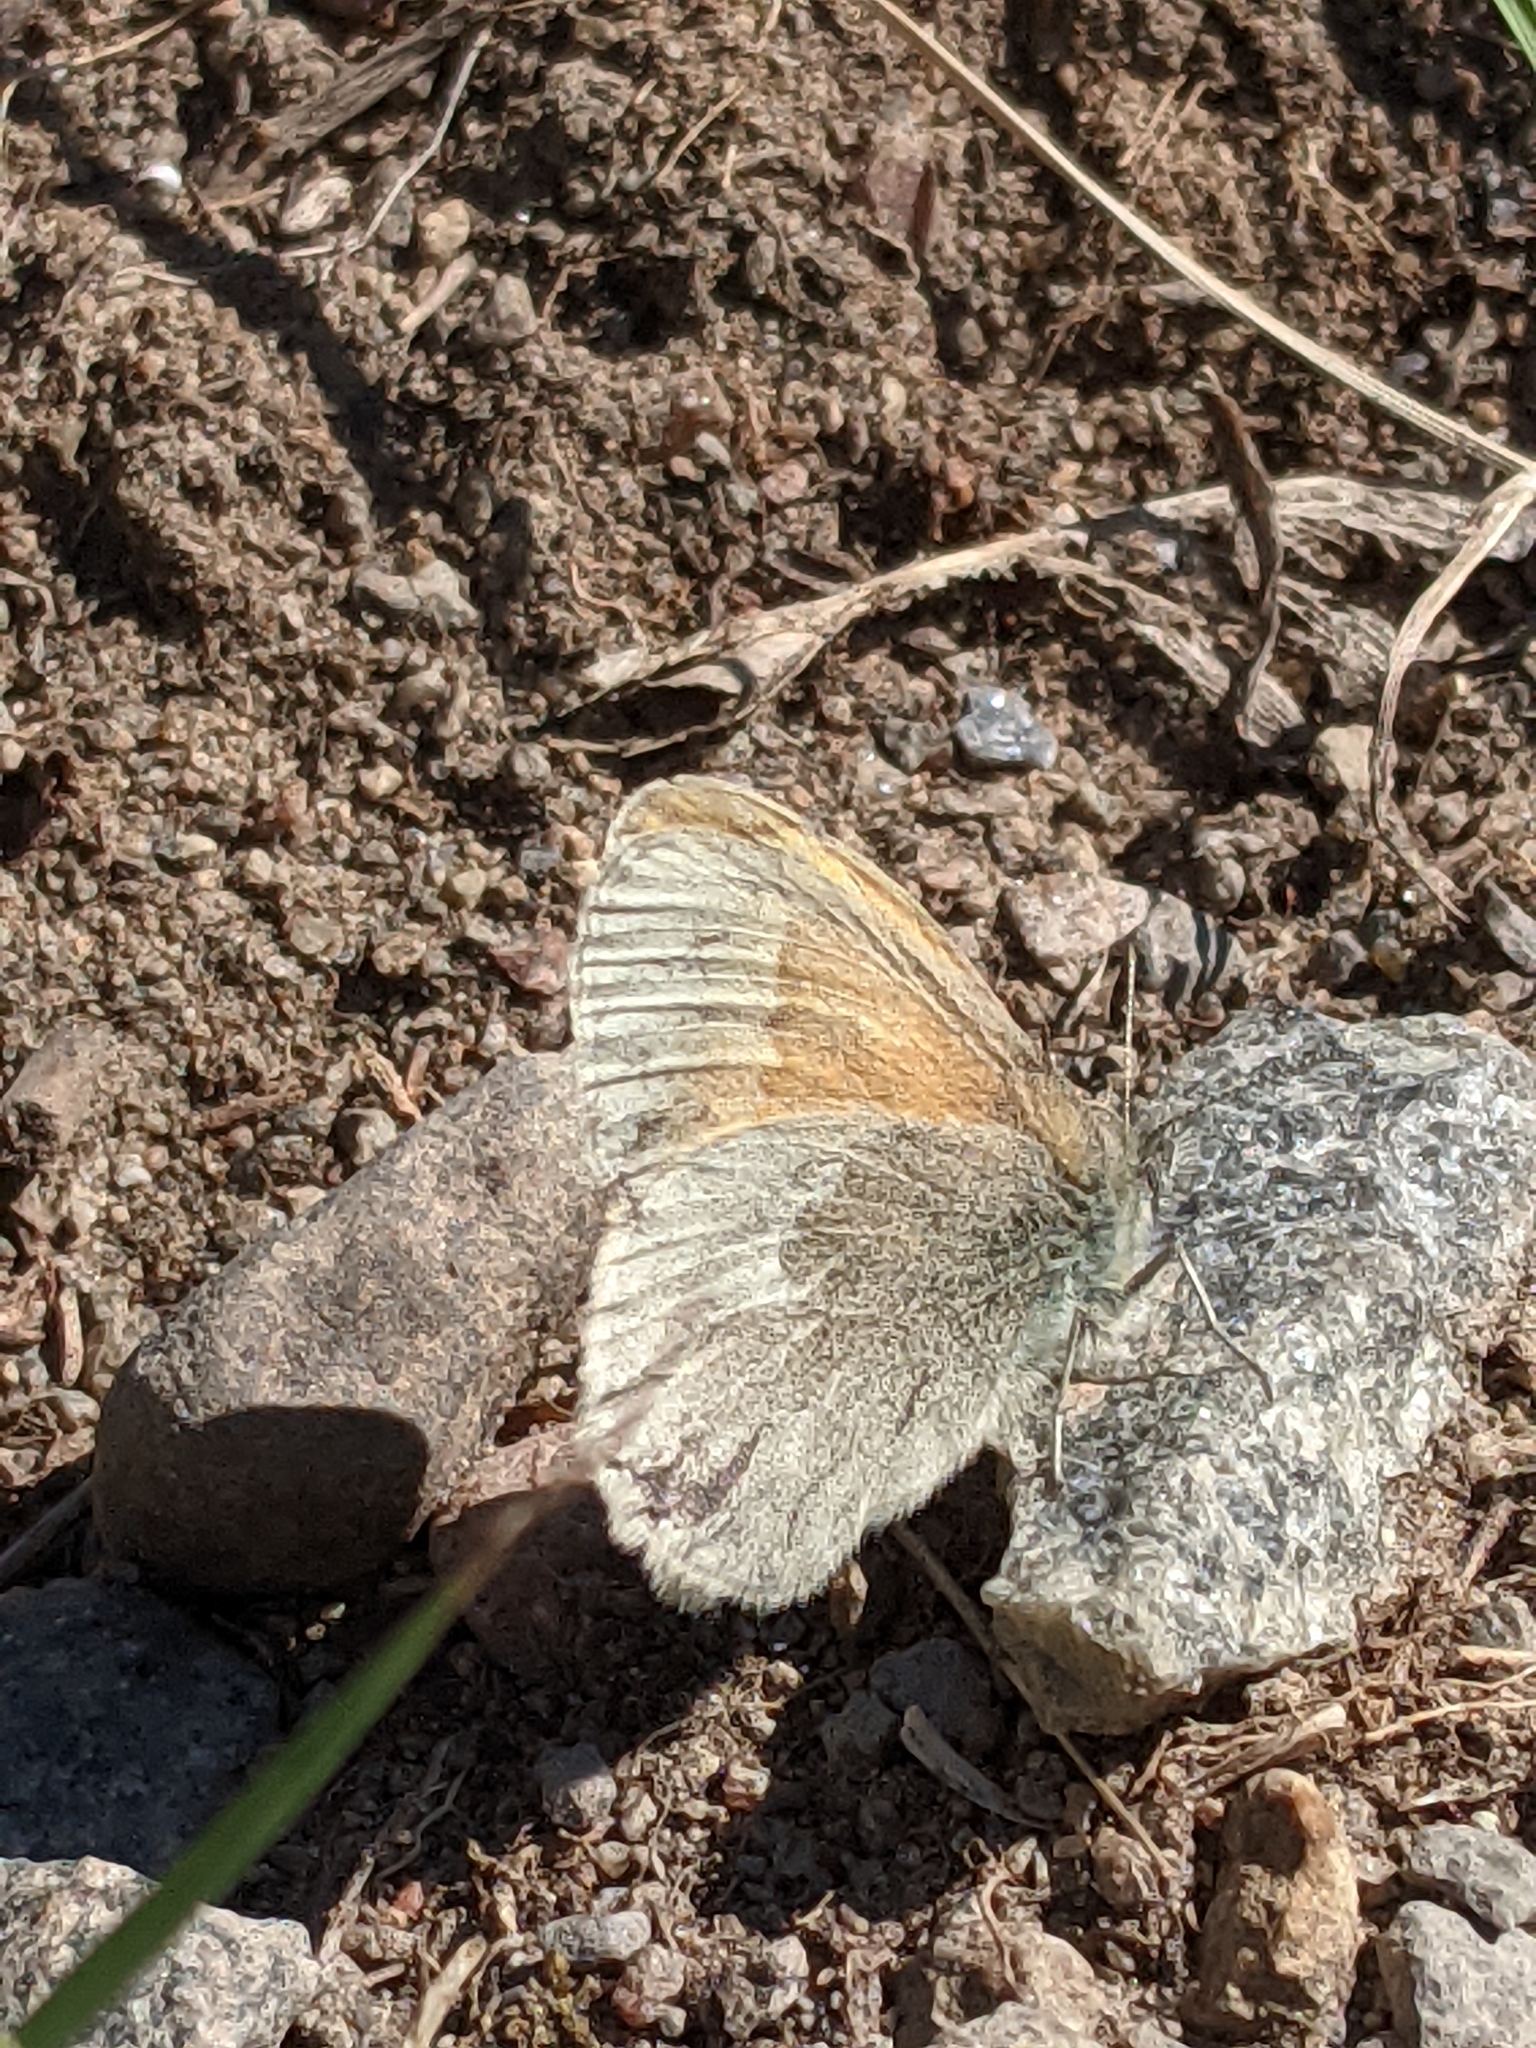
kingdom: Animalia
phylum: Arthropoda
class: Insecta
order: Lepidoptera
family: Nymphalidae
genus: Coenonympha
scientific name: Coenonympha california
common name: Common ringlet
